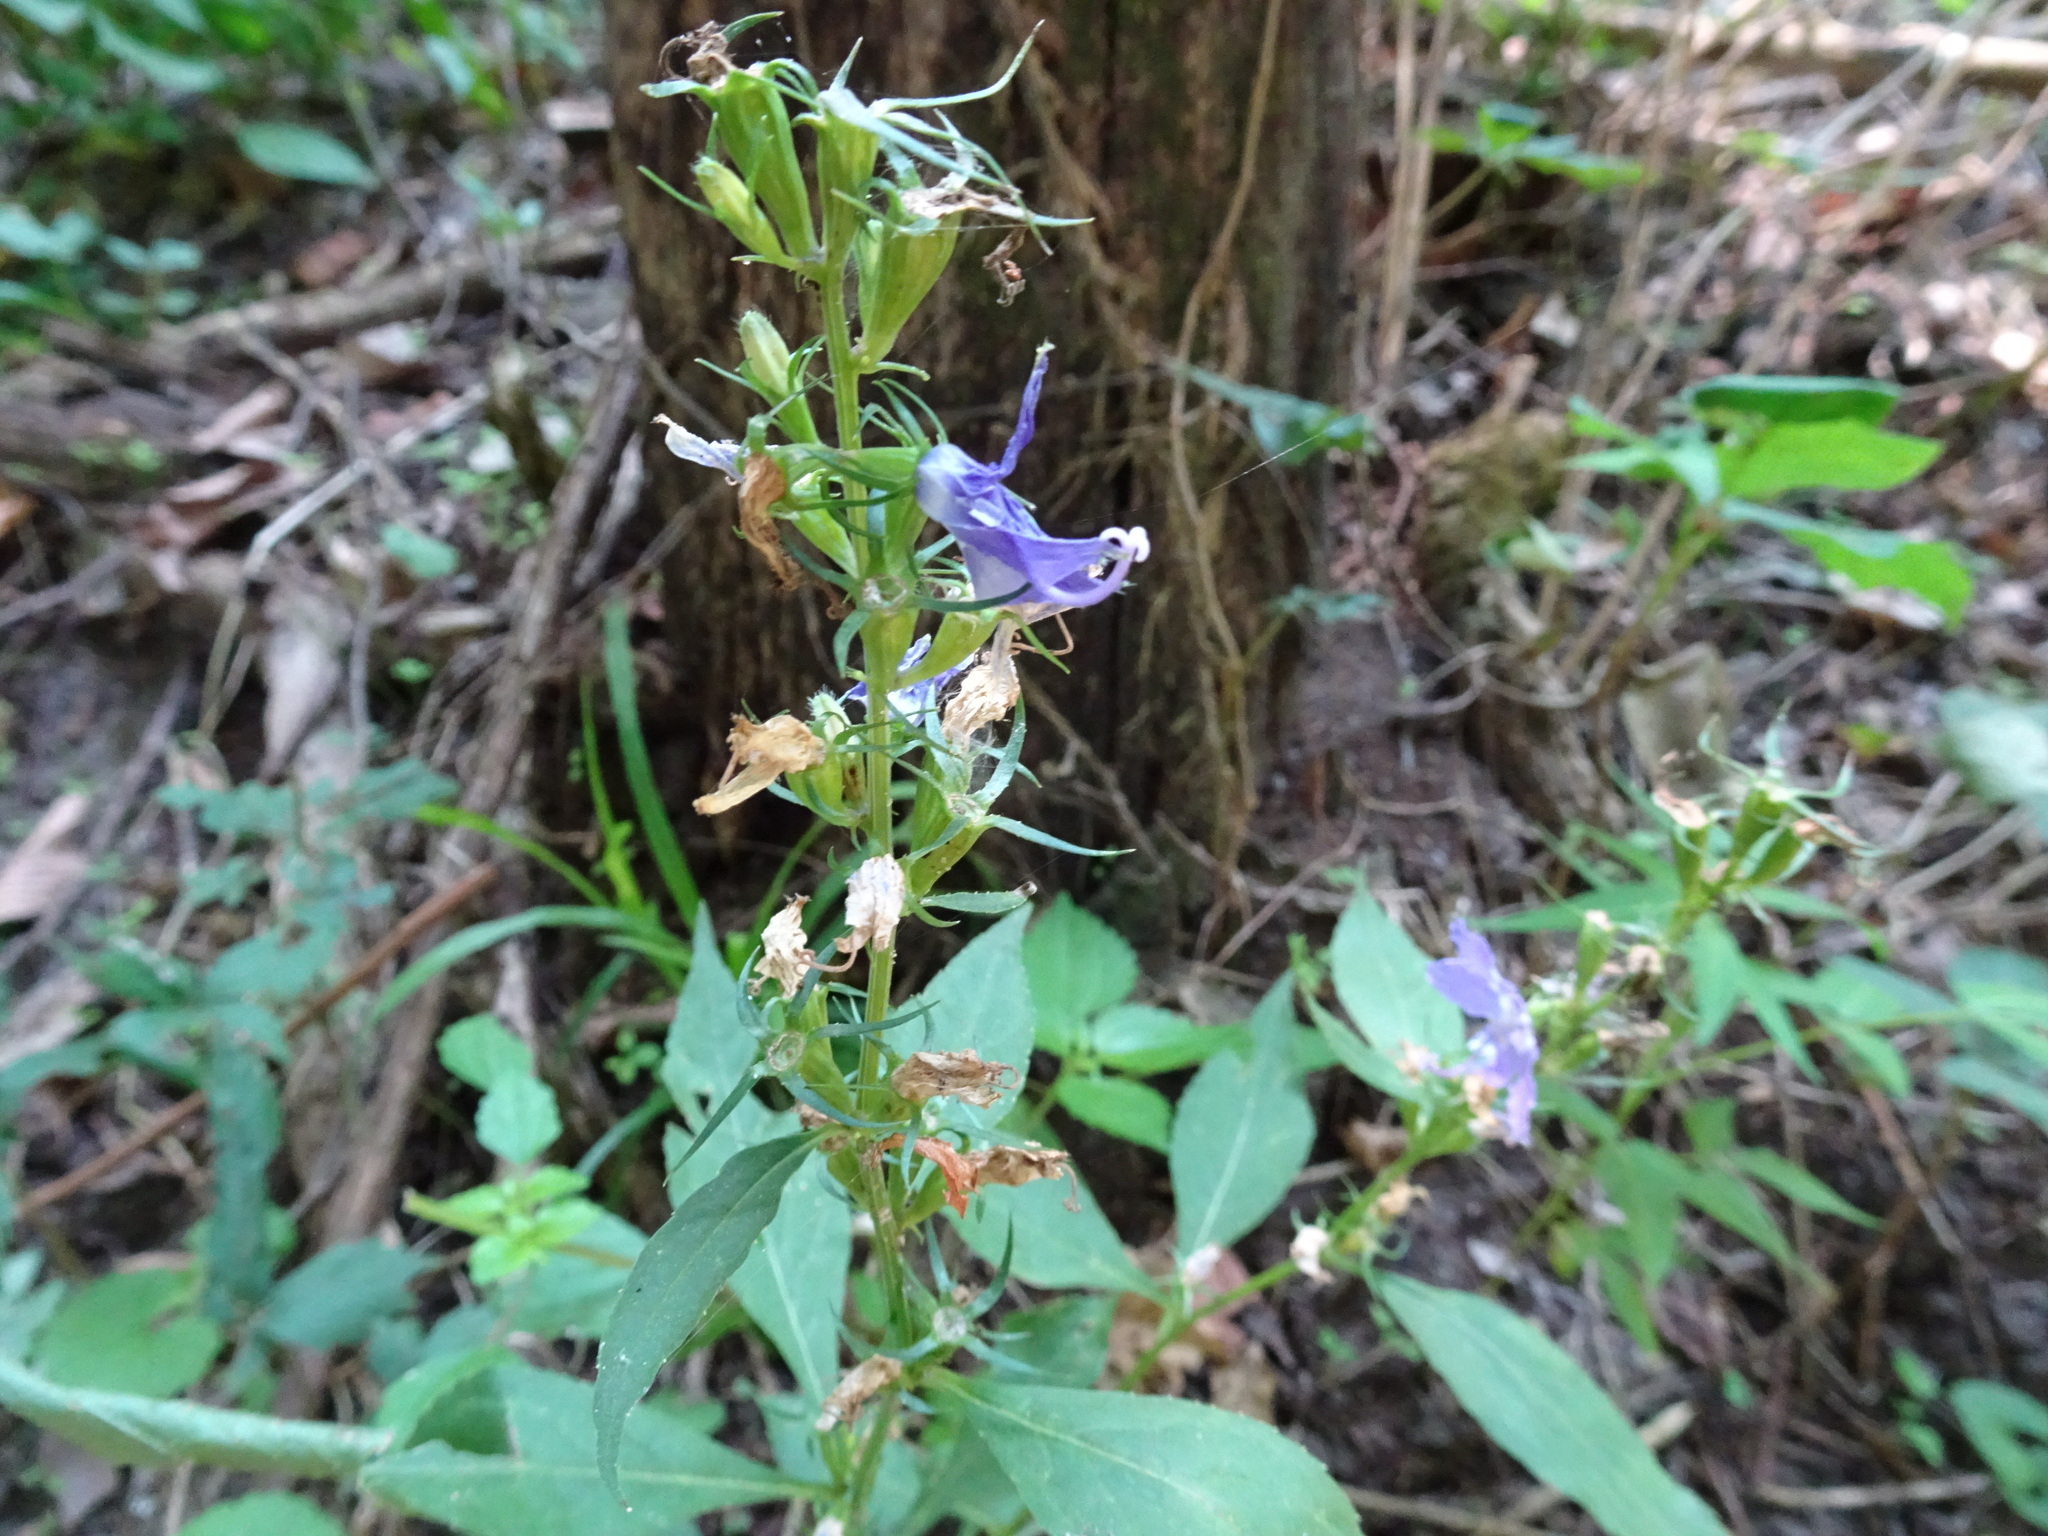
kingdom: Plantae
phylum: Tracheophyta
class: Magnoliopsida
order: Asterales
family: Campanulaceae
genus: Campanulastrum
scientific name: Campanulastrum americanum
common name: American bellflower
